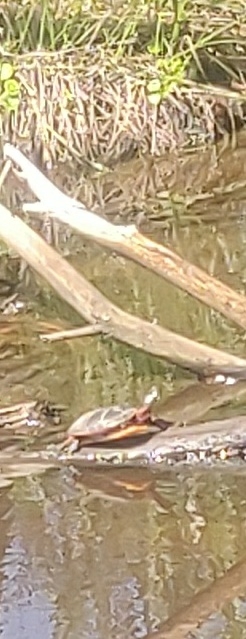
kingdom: Animalia
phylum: Chordata
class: Testudines
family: Emydidae
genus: Chrysemys
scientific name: Chrysemys picta
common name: Painted turtle
